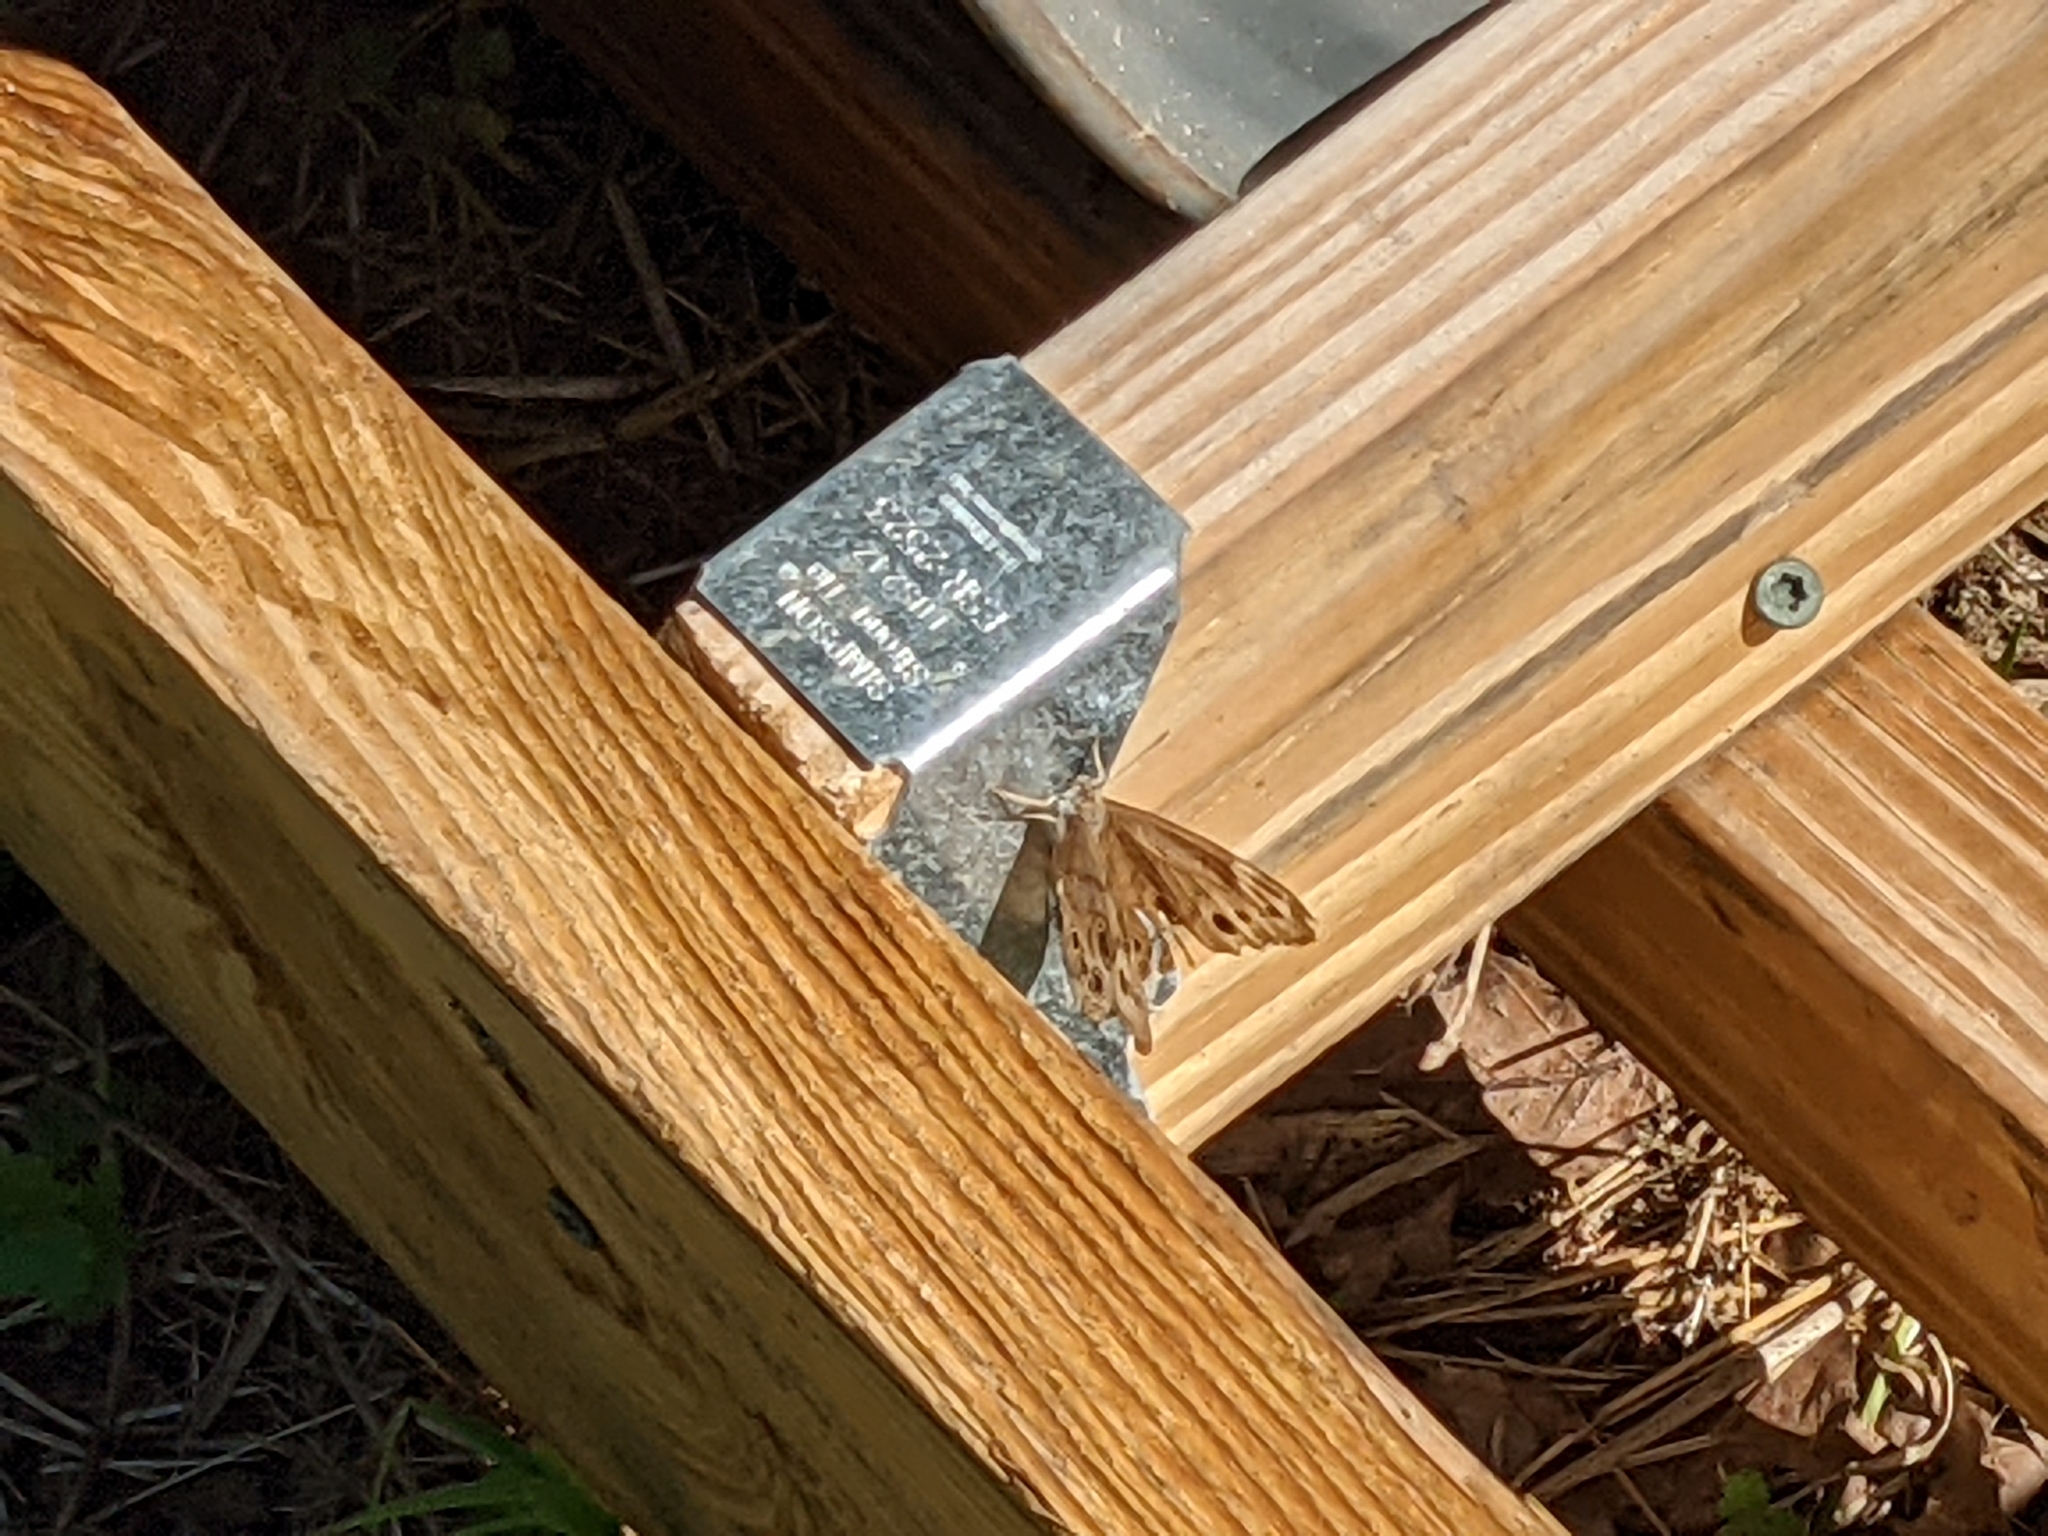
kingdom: Animalia
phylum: Arthropoda
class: Insecta
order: Lepidoptera
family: Nymphalidae
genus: Lethe
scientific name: Lethe anthedon
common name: Northern pearly-eye
